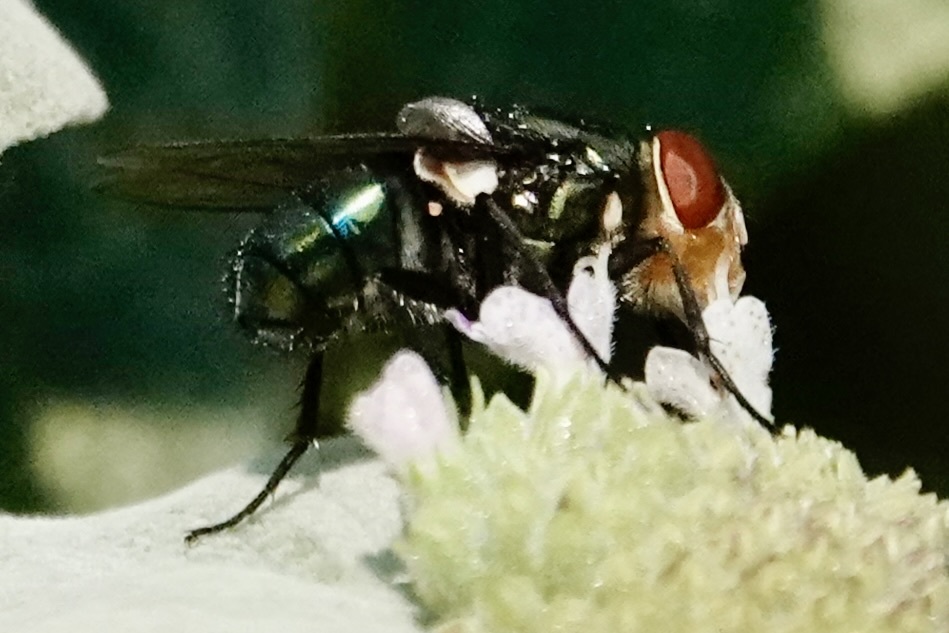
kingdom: Animalia
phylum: Arthropoda
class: Insecta
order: Diptera
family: Calliphoridae
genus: Cochliomyia
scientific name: Cochliomyia macellaria
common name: Secondary screwworm
